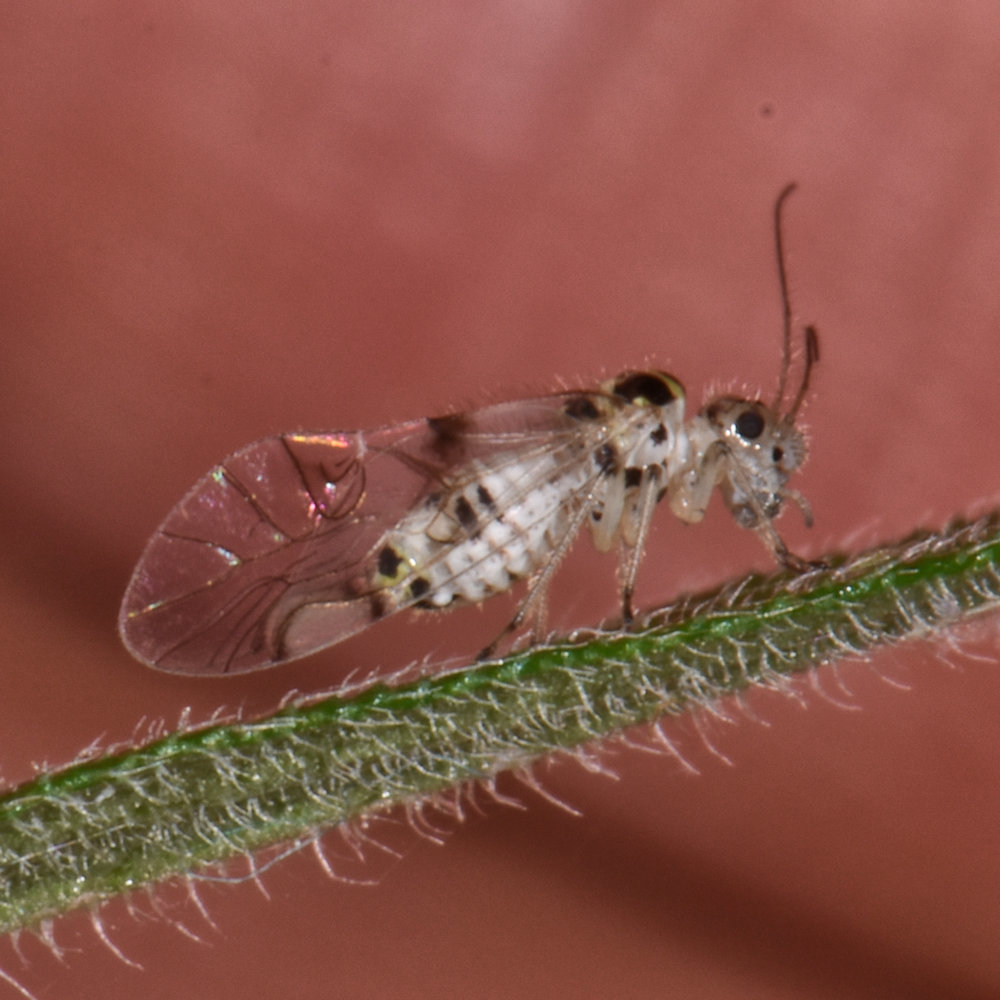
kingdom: Animalia
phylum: Arthropoda
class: Insecta
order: Psocodea
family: Dasydemellidae
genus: Teliapsocus
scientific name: Teliapsocus conterminus
